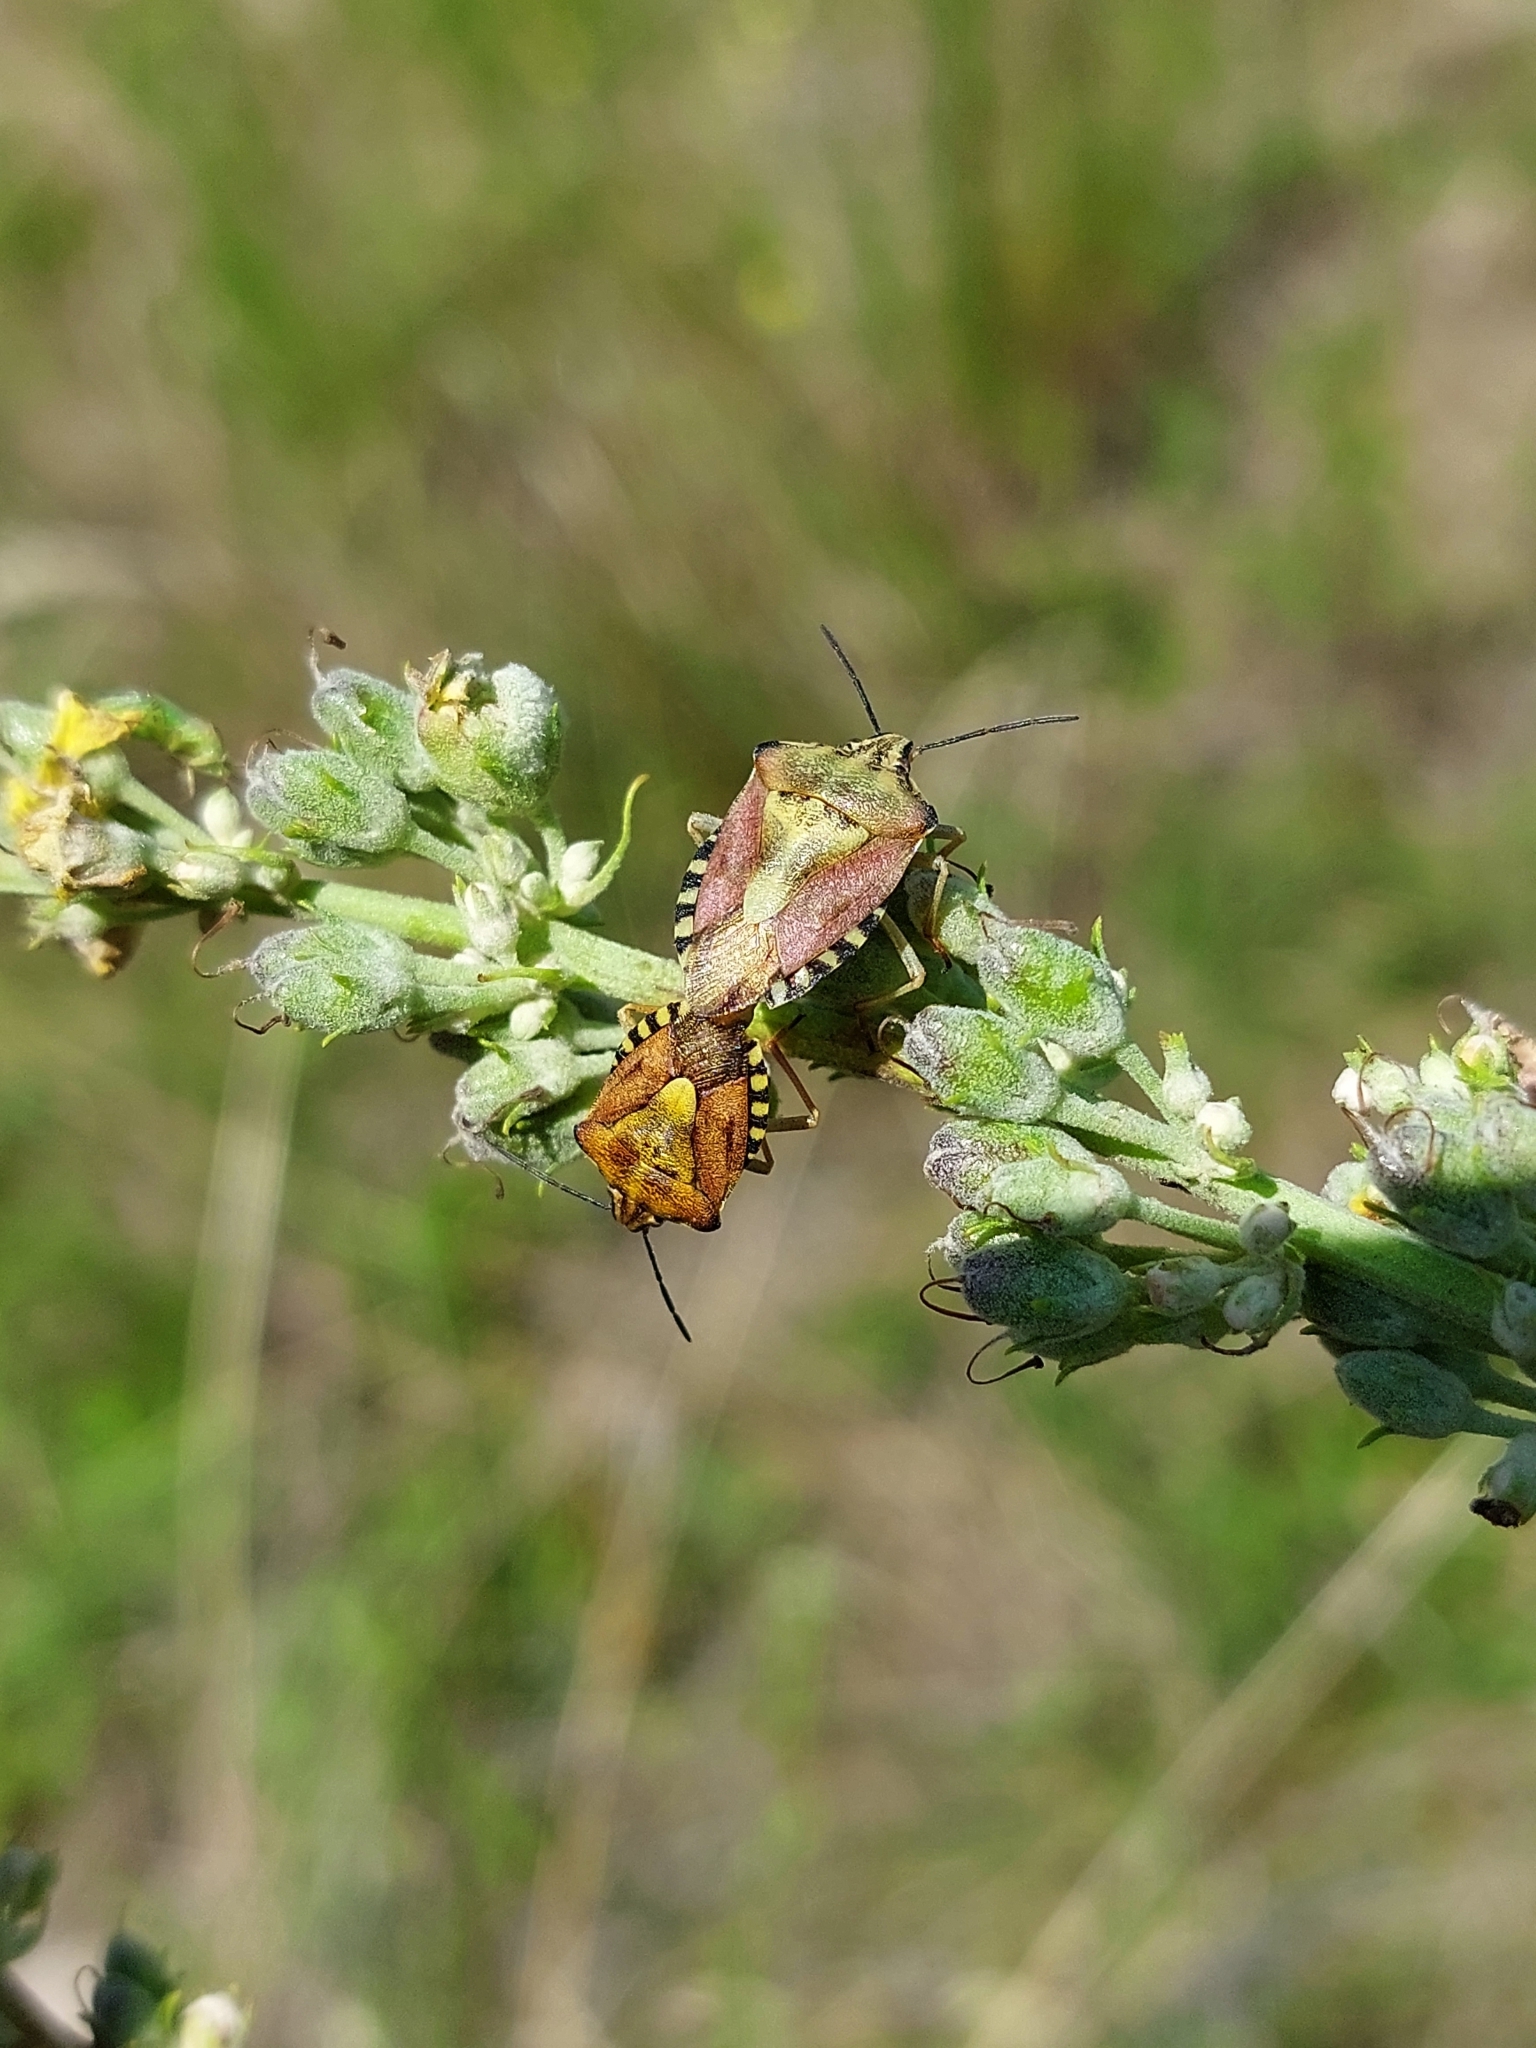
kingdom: Animalia
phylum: Arthropoda
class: Insecta
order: Hemiptera
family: Pentatomidae
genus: Carpocoris
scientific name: Carpocoris purpureipennis
